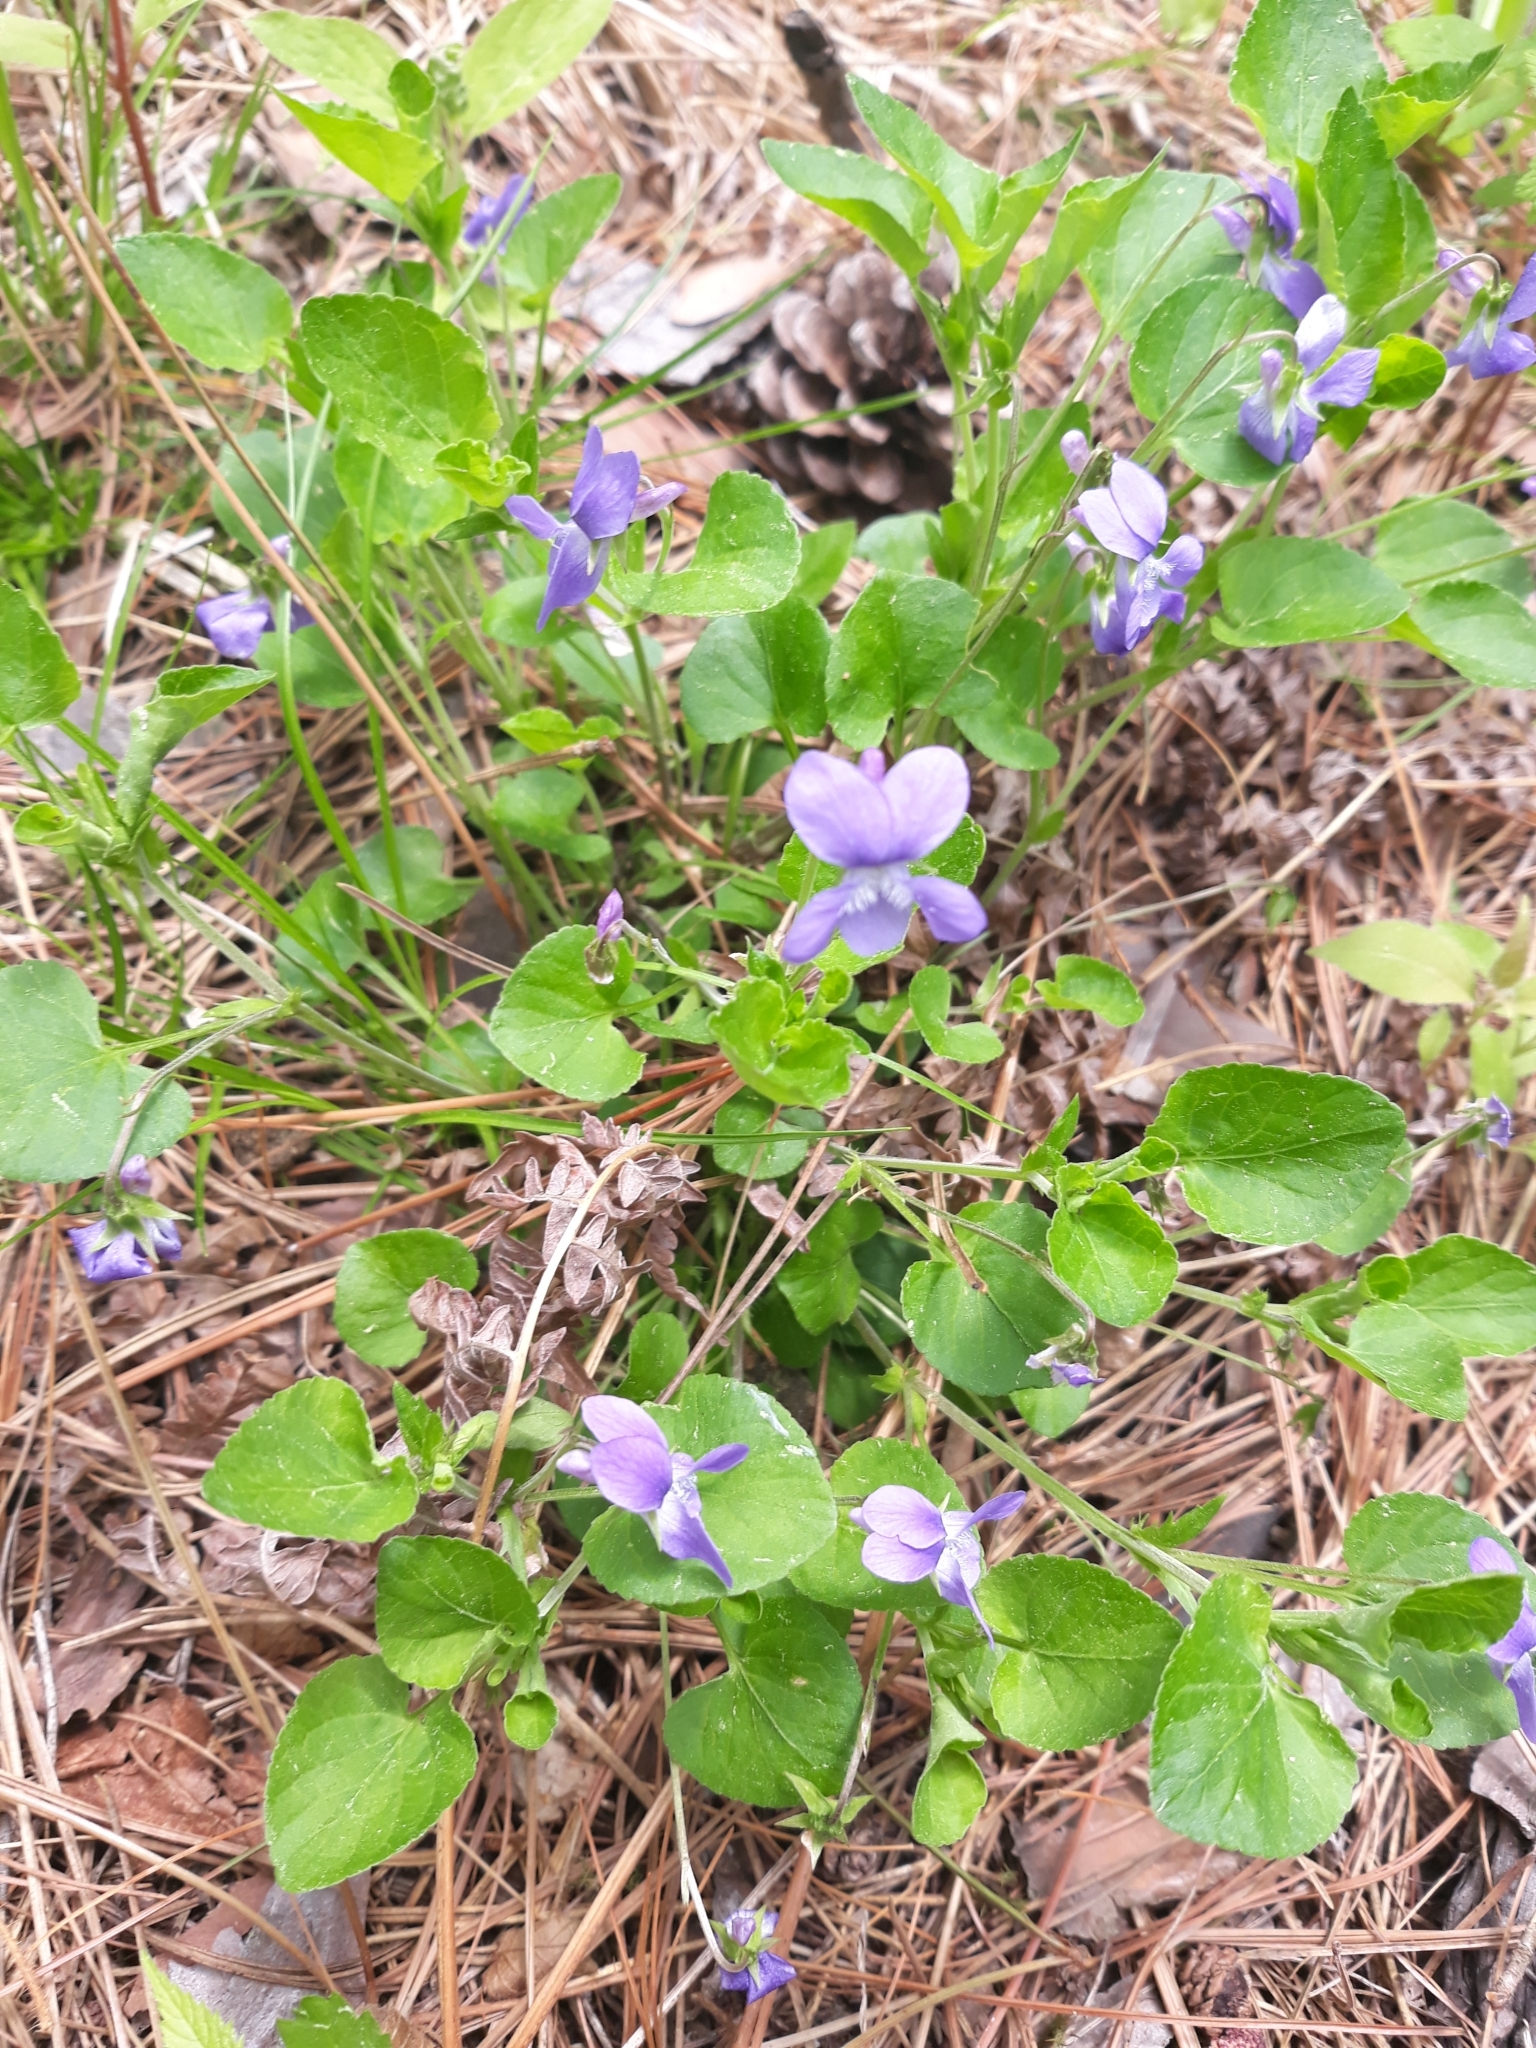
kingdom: Plantae
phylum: Tracheophyta
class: Magnoliopsida
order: Malpighiales
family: Violaceae
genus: Viola
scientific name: Viola adunca
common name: Sand violet
